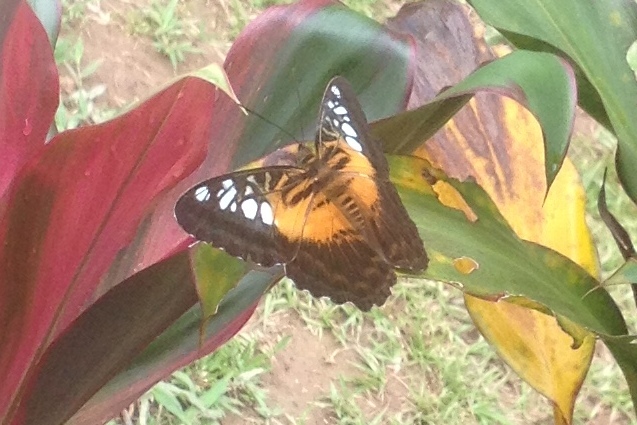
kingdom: Animalia
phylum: Arthropoda
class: Insecta
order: Lepidoptera
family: Nymphalidae
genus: Parthenos
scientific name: Parthenos tigrina
